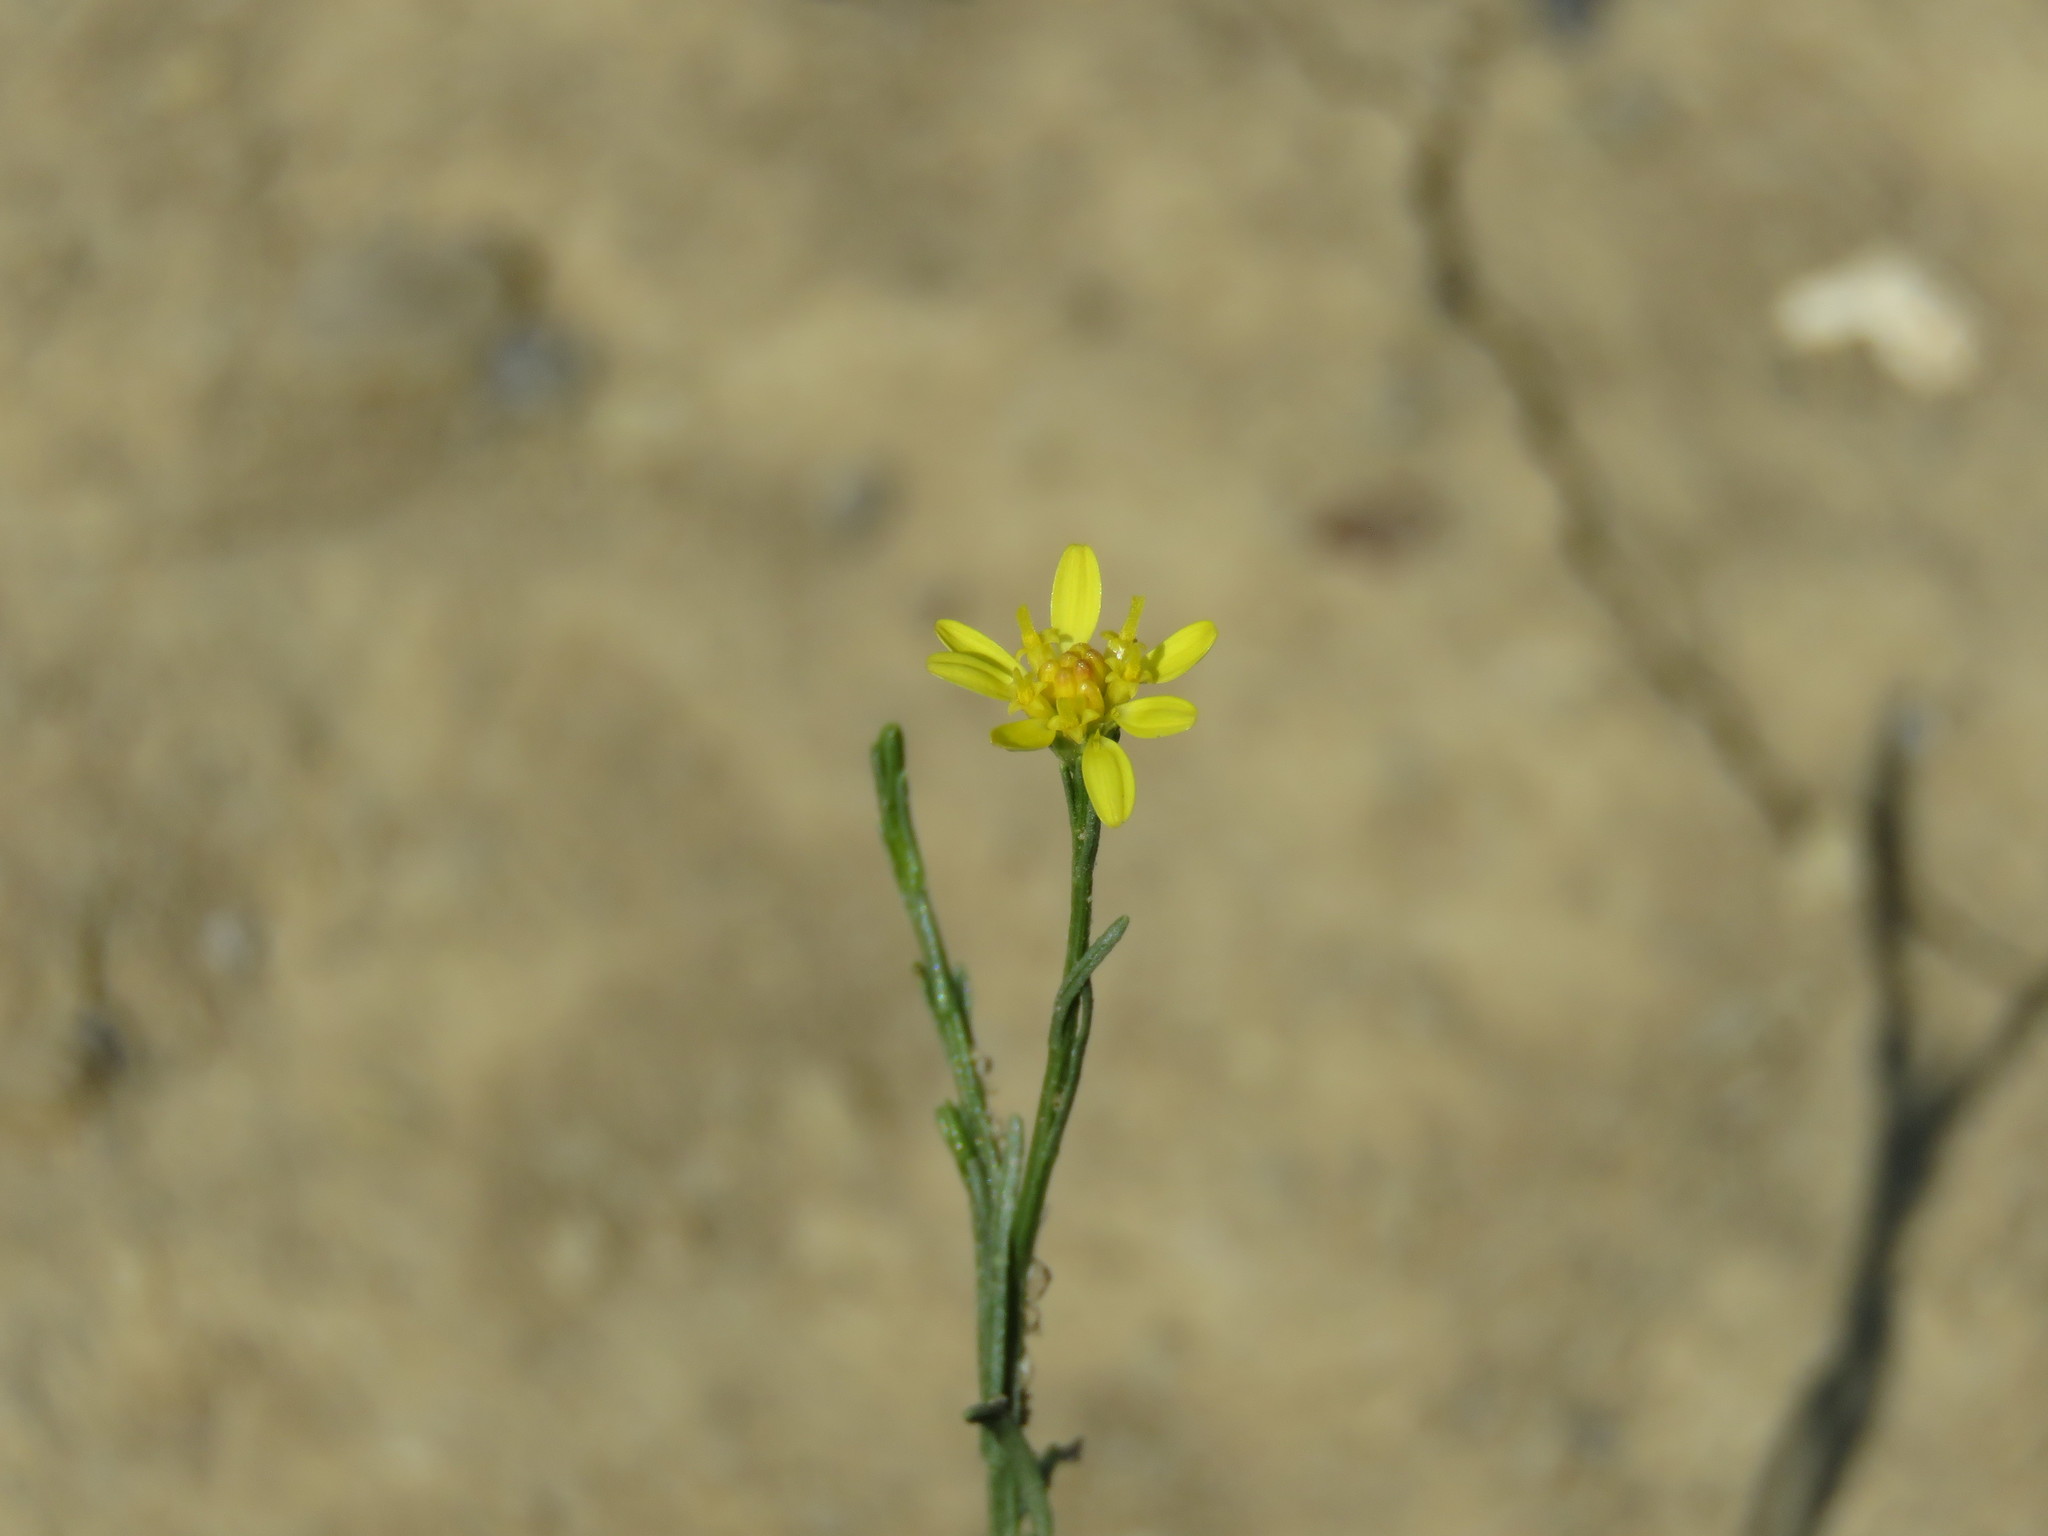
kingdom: Plantae
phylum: Tracheophyta
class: Magnoliopsida
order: Asterales
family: Asteraceae
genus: Gutierrezia
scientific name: Gutierrezia sphaerocephala
